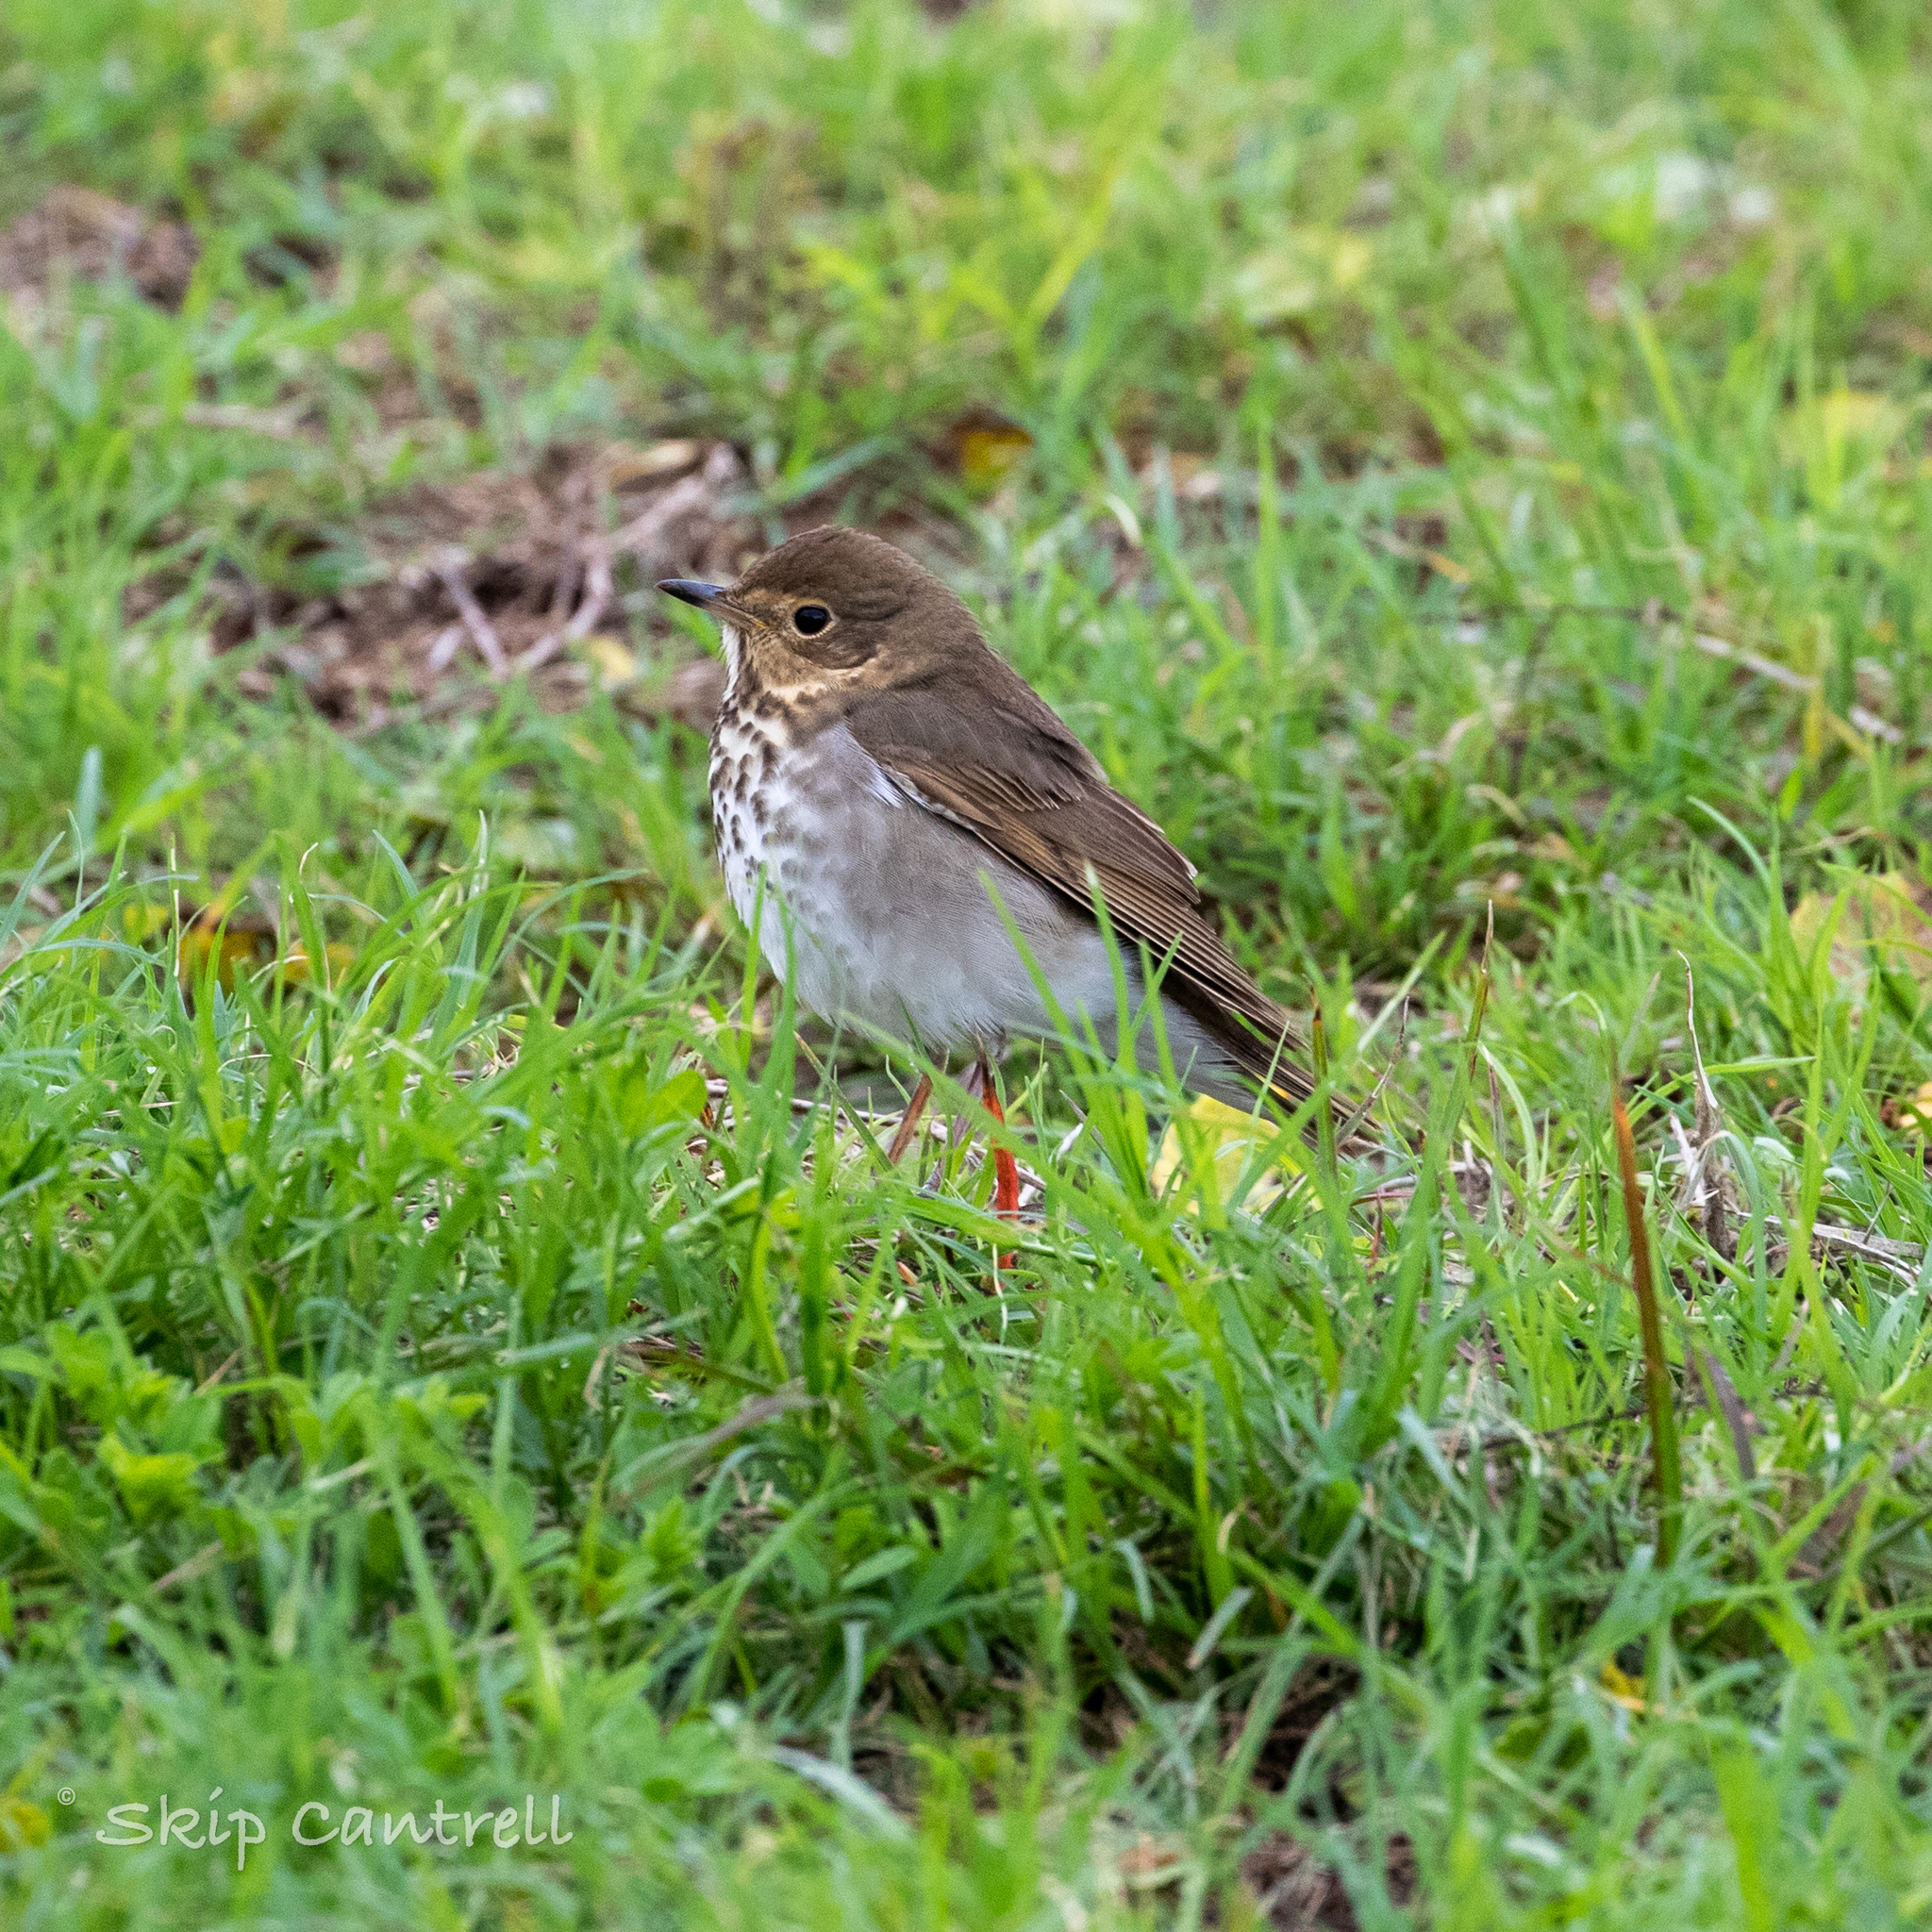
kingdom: Animalia
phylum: Chordata
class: Aves
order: Passeriformes
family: Turdidae
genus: Catharus
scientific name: Catharus ustulatus
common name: Swainson's thrush
